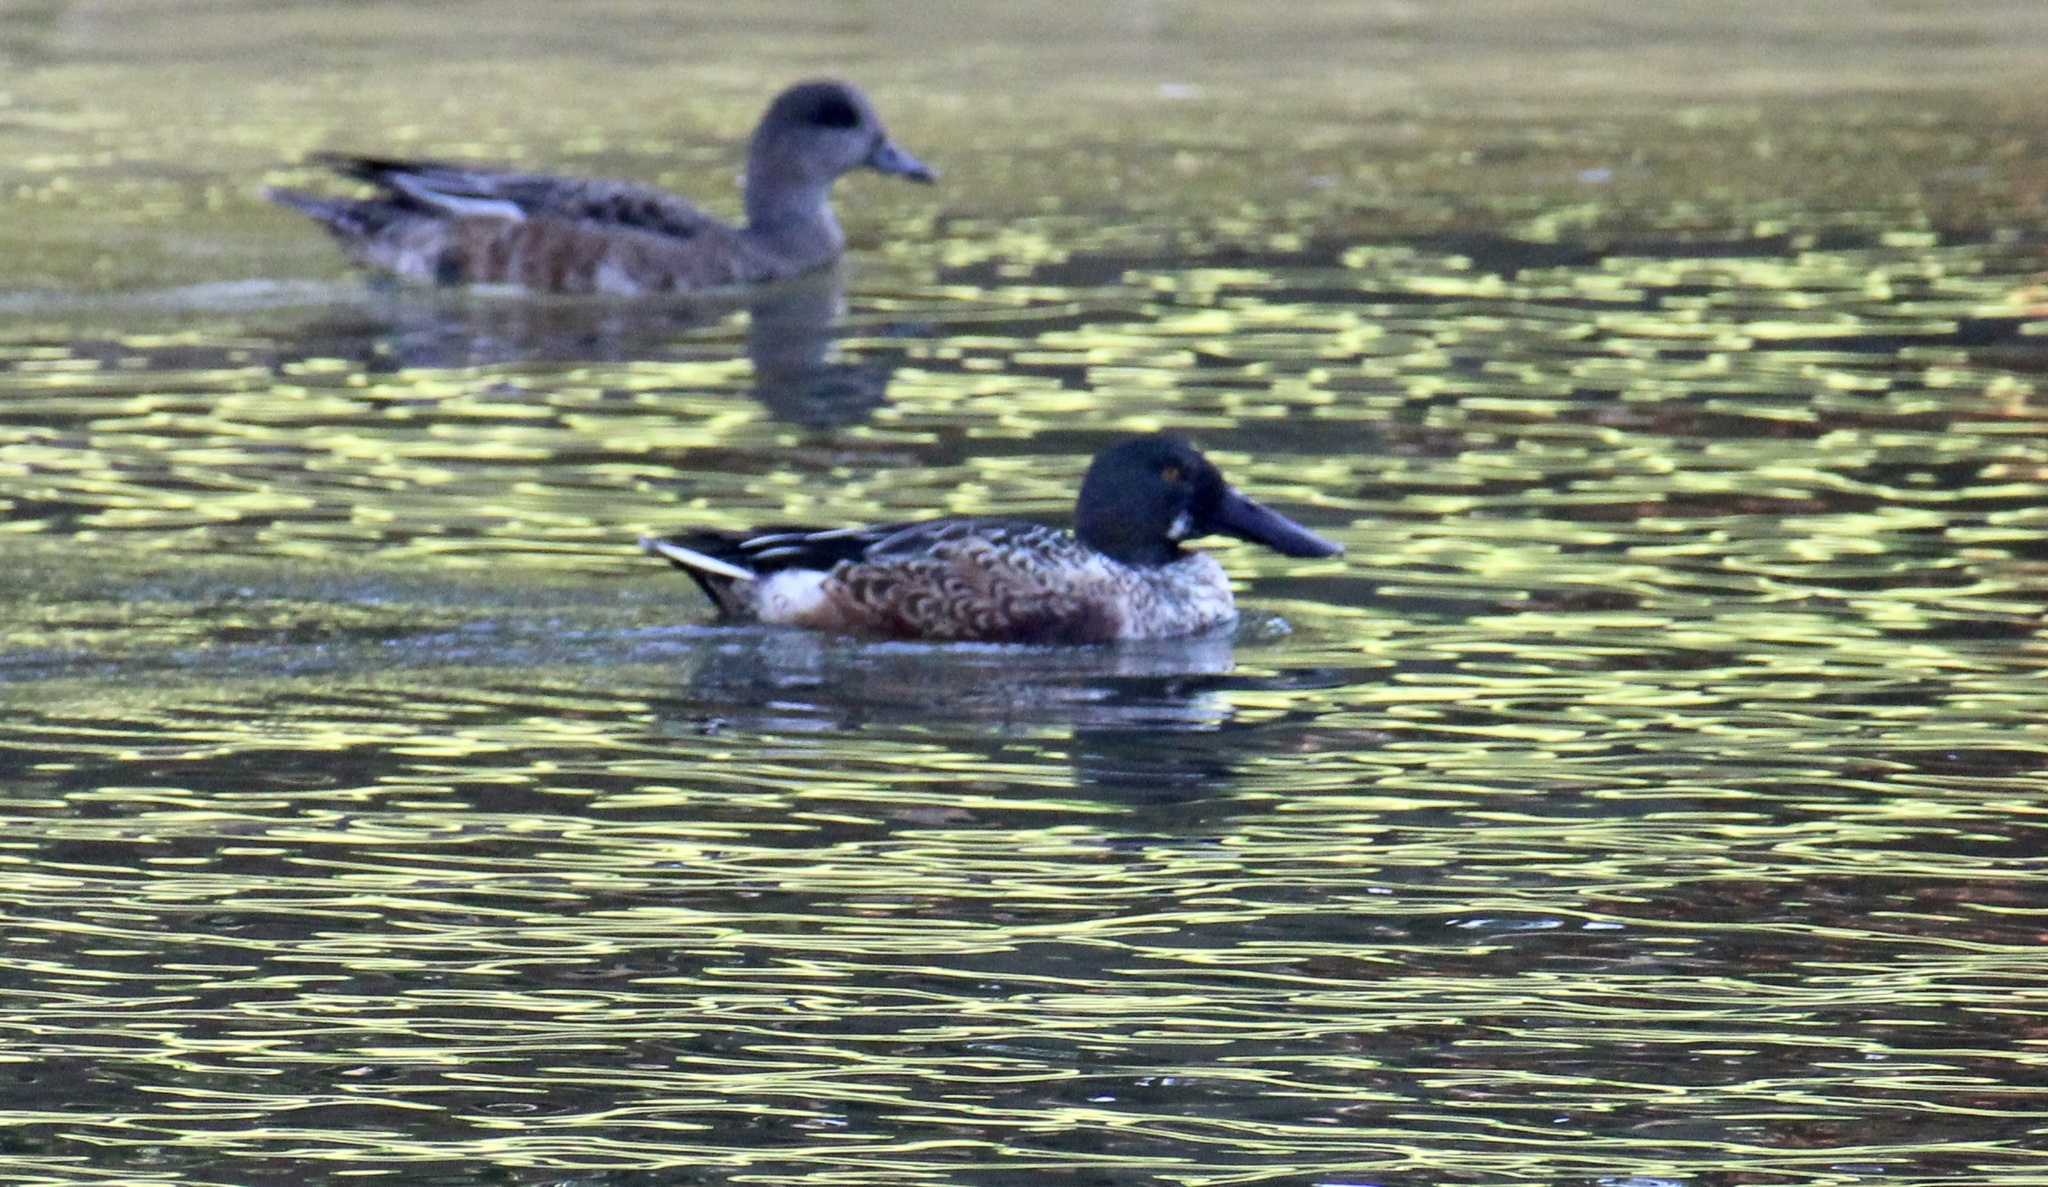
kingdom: Animalia
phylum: Chordata
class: Aves
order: Anseriformes
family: Anatidae
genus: Spatula
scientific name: Spatula clypeata
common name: Northern shoveler
